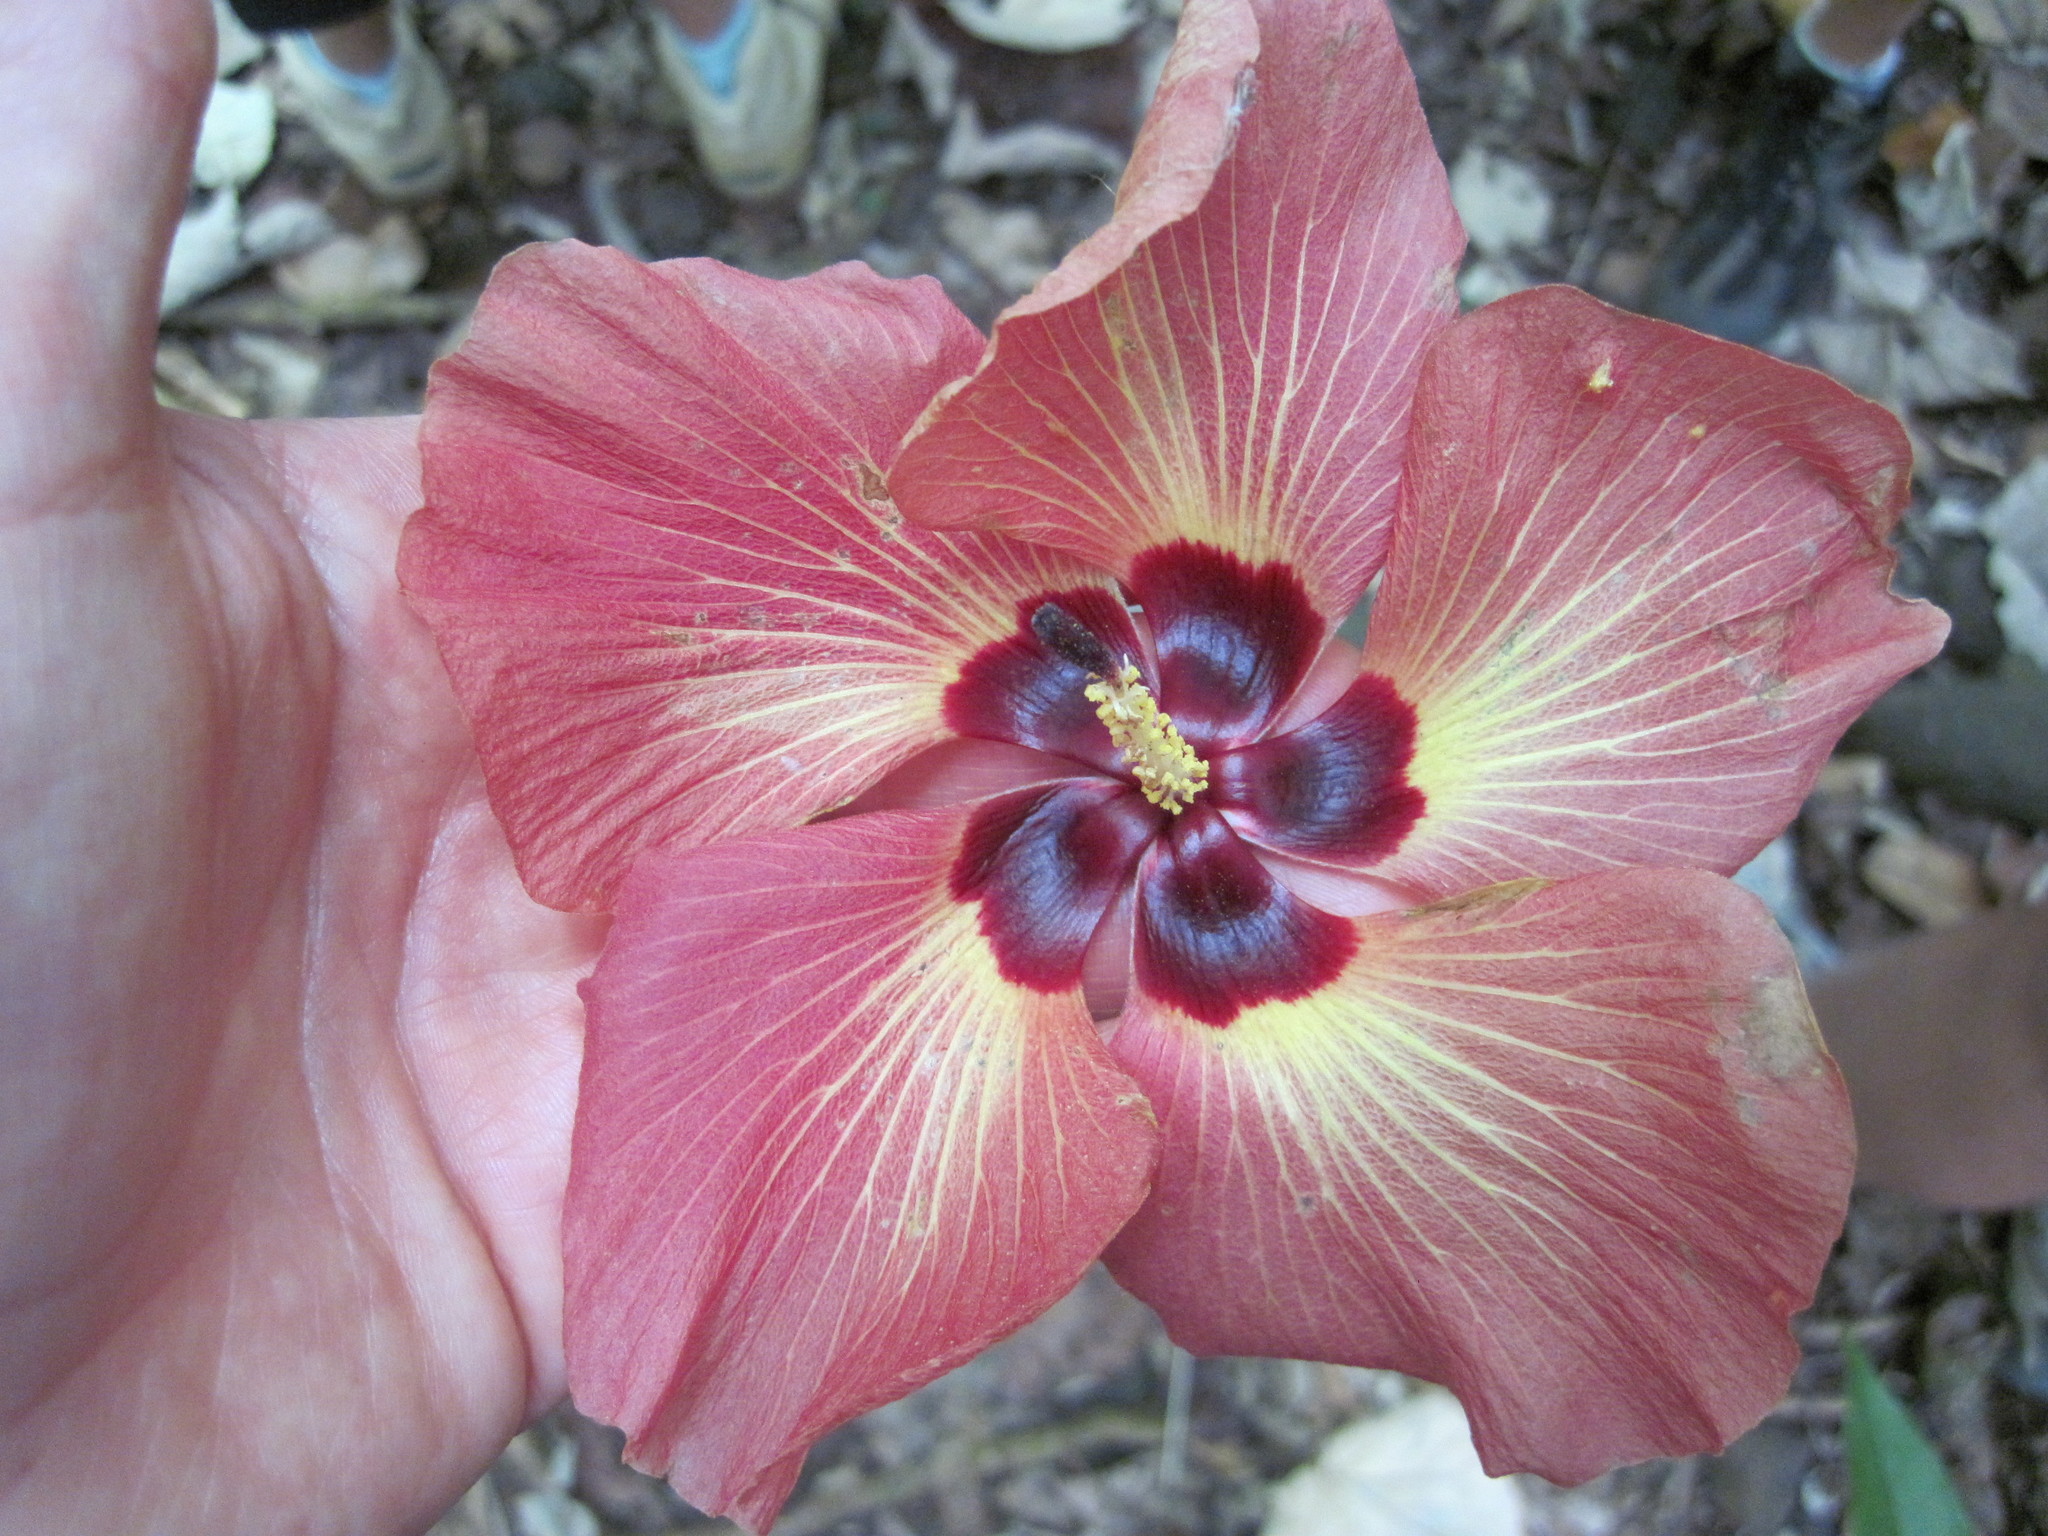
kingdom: Plantae
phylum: Tracheophyta
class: Magnoliopsida
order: Malvales
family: Malvaceae
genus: Talipariti
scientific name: Talipariti tiliaceum
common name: Sea hibiscus
